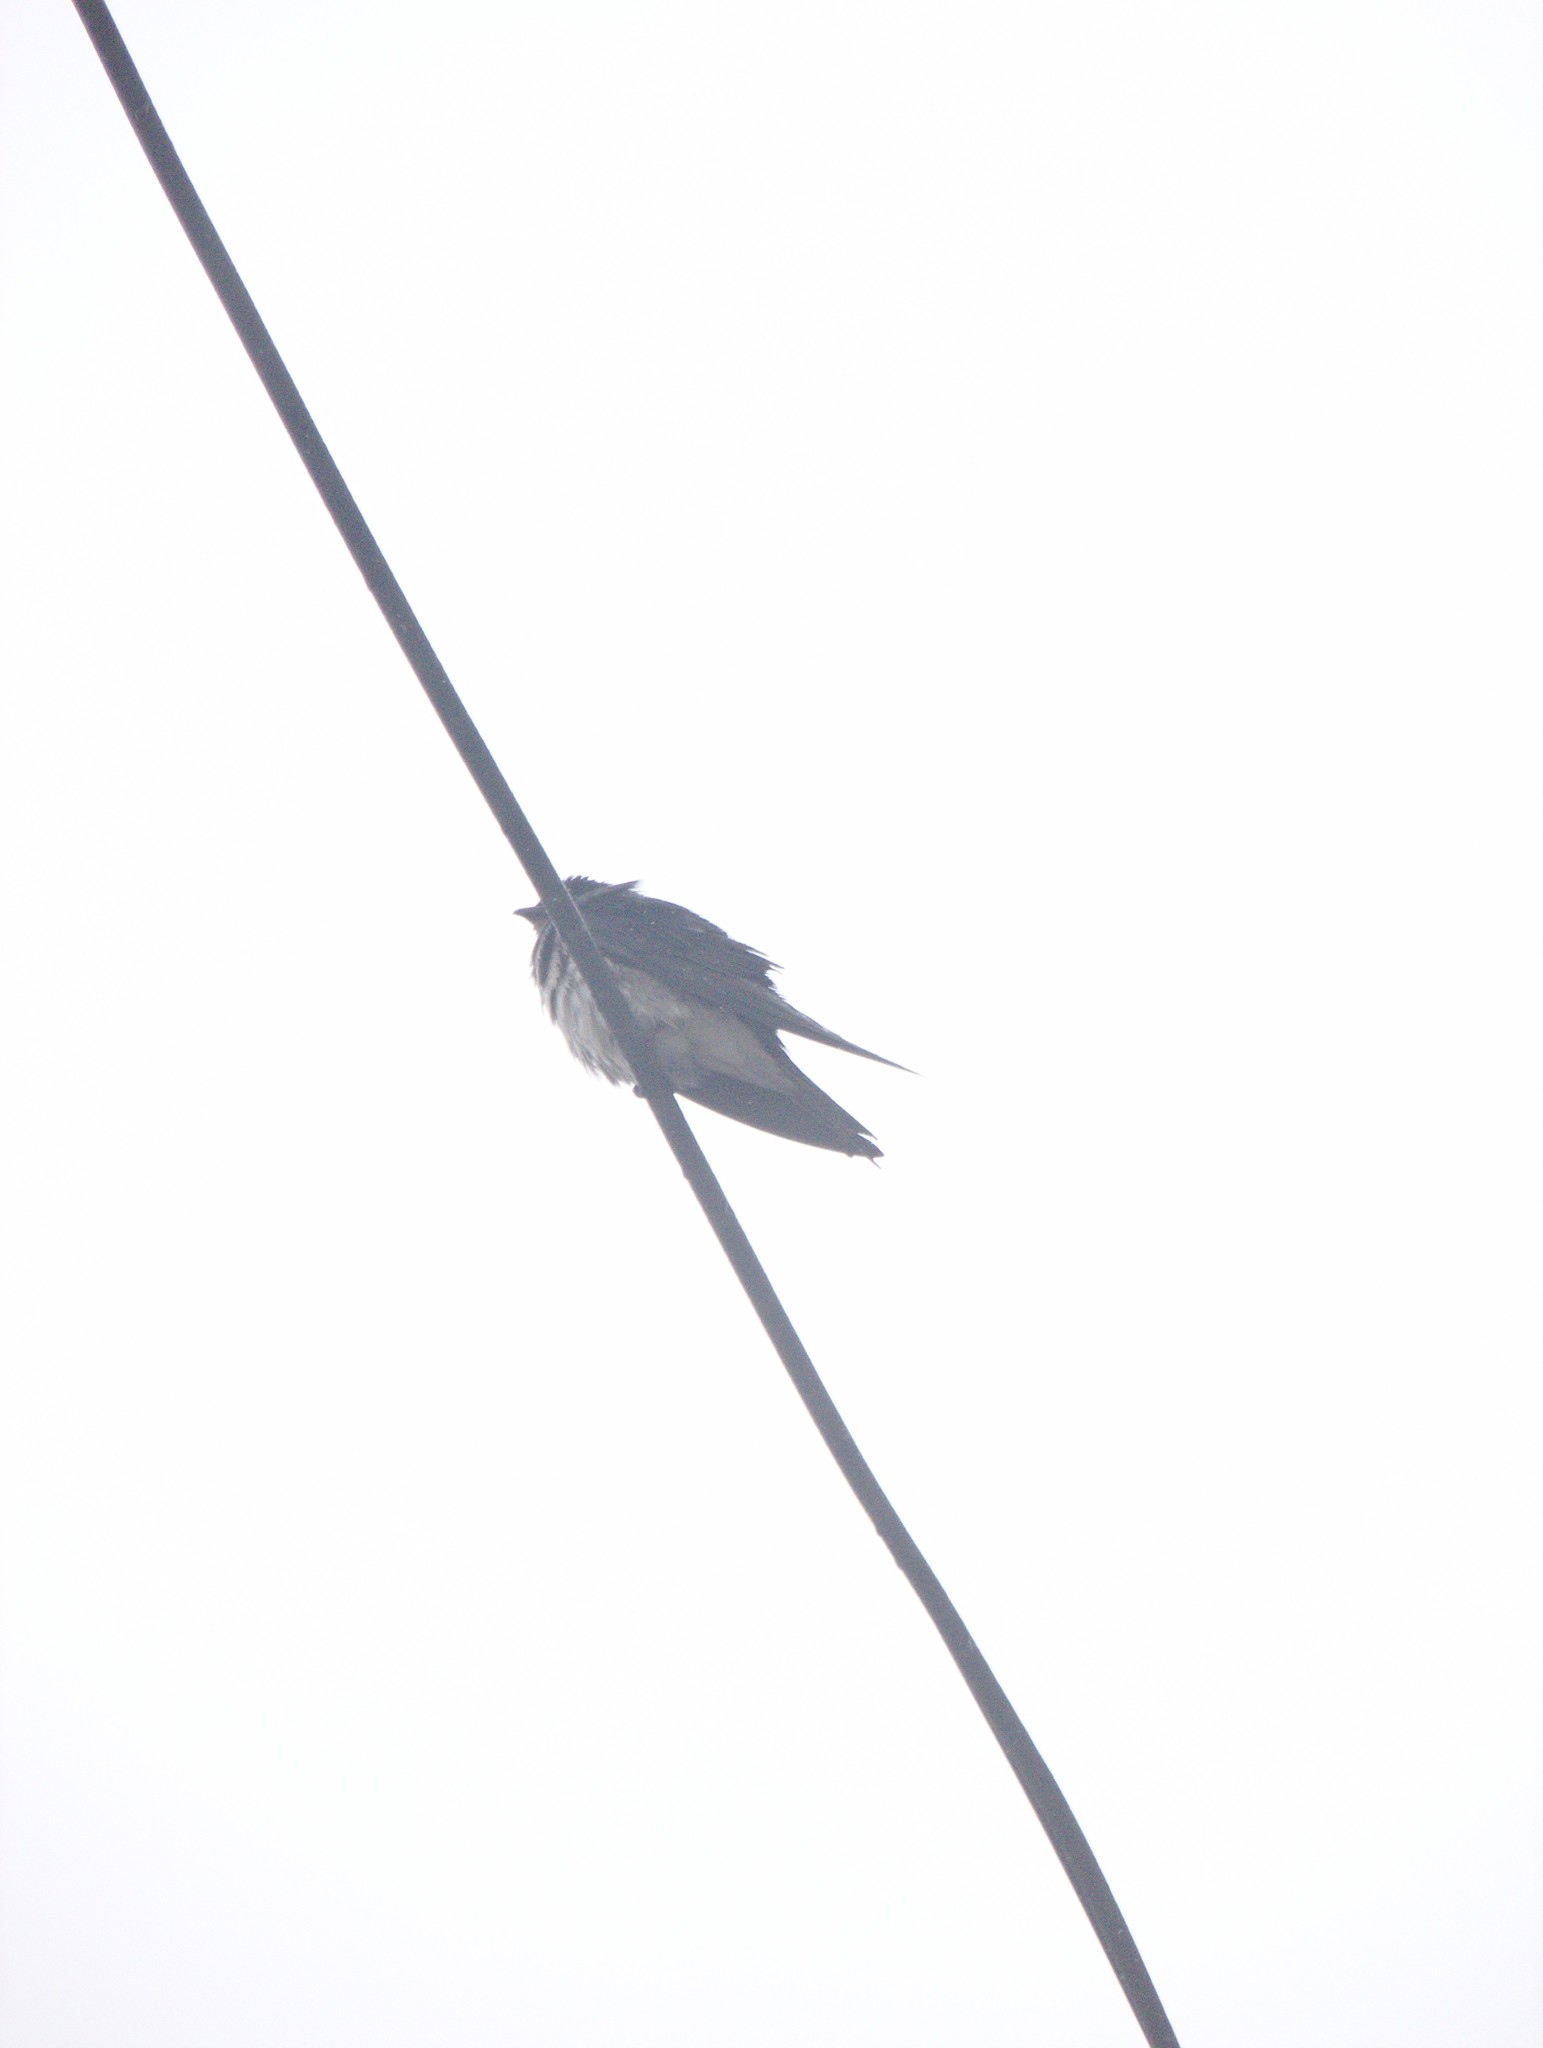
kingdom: Animalia
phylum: Chordata
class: Aves
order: Passeriformes
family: Hirundinidae
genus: Progne
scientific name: Progne chalybea
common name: Grey-breasted martin
